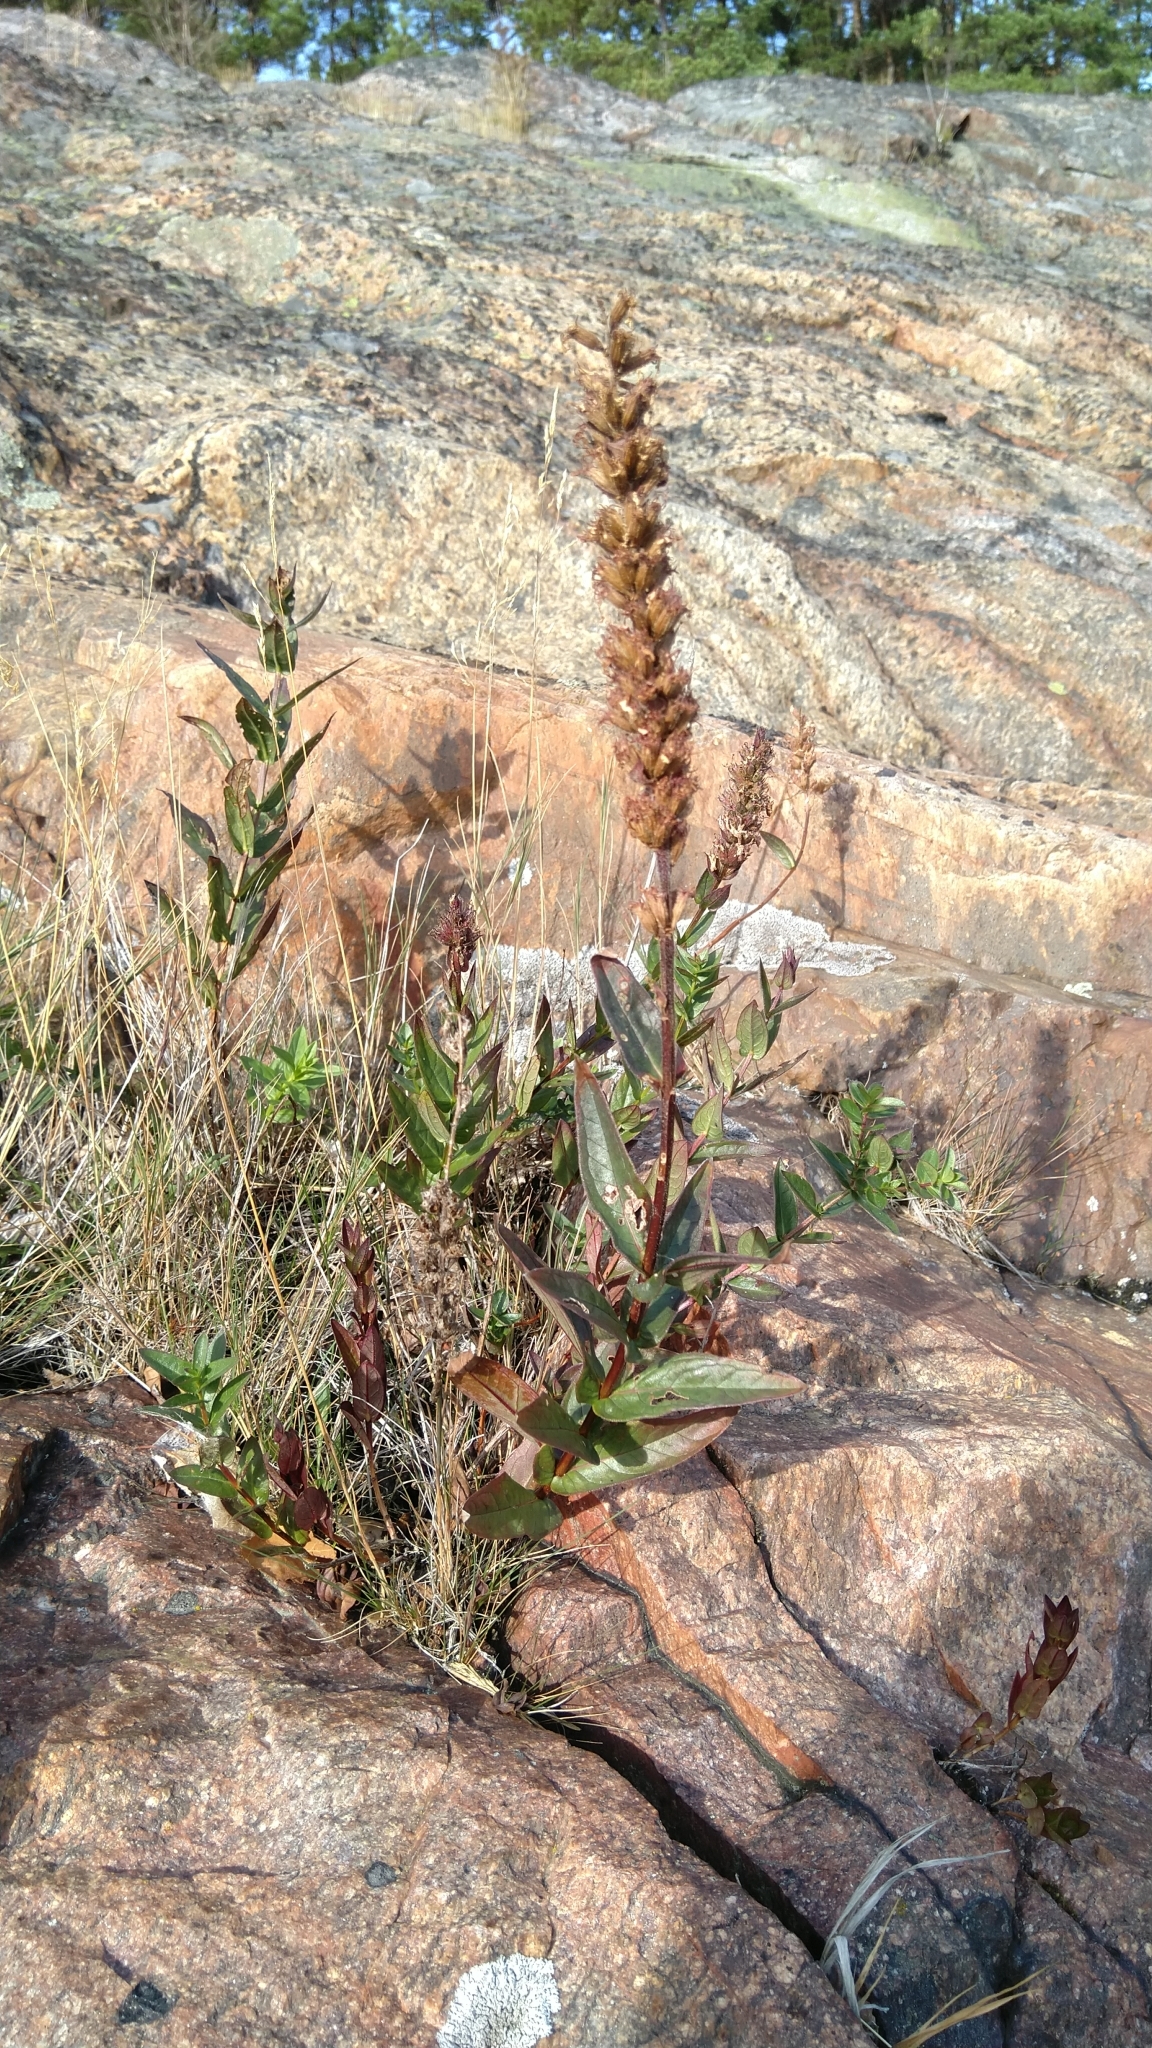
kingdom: Plantae
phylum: Tracheophyta
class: Magnoliopsida
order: Myrtales
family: Lythraceae
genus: Lythrum
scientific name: Lythrum salicaria
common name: Purple loosestrife
